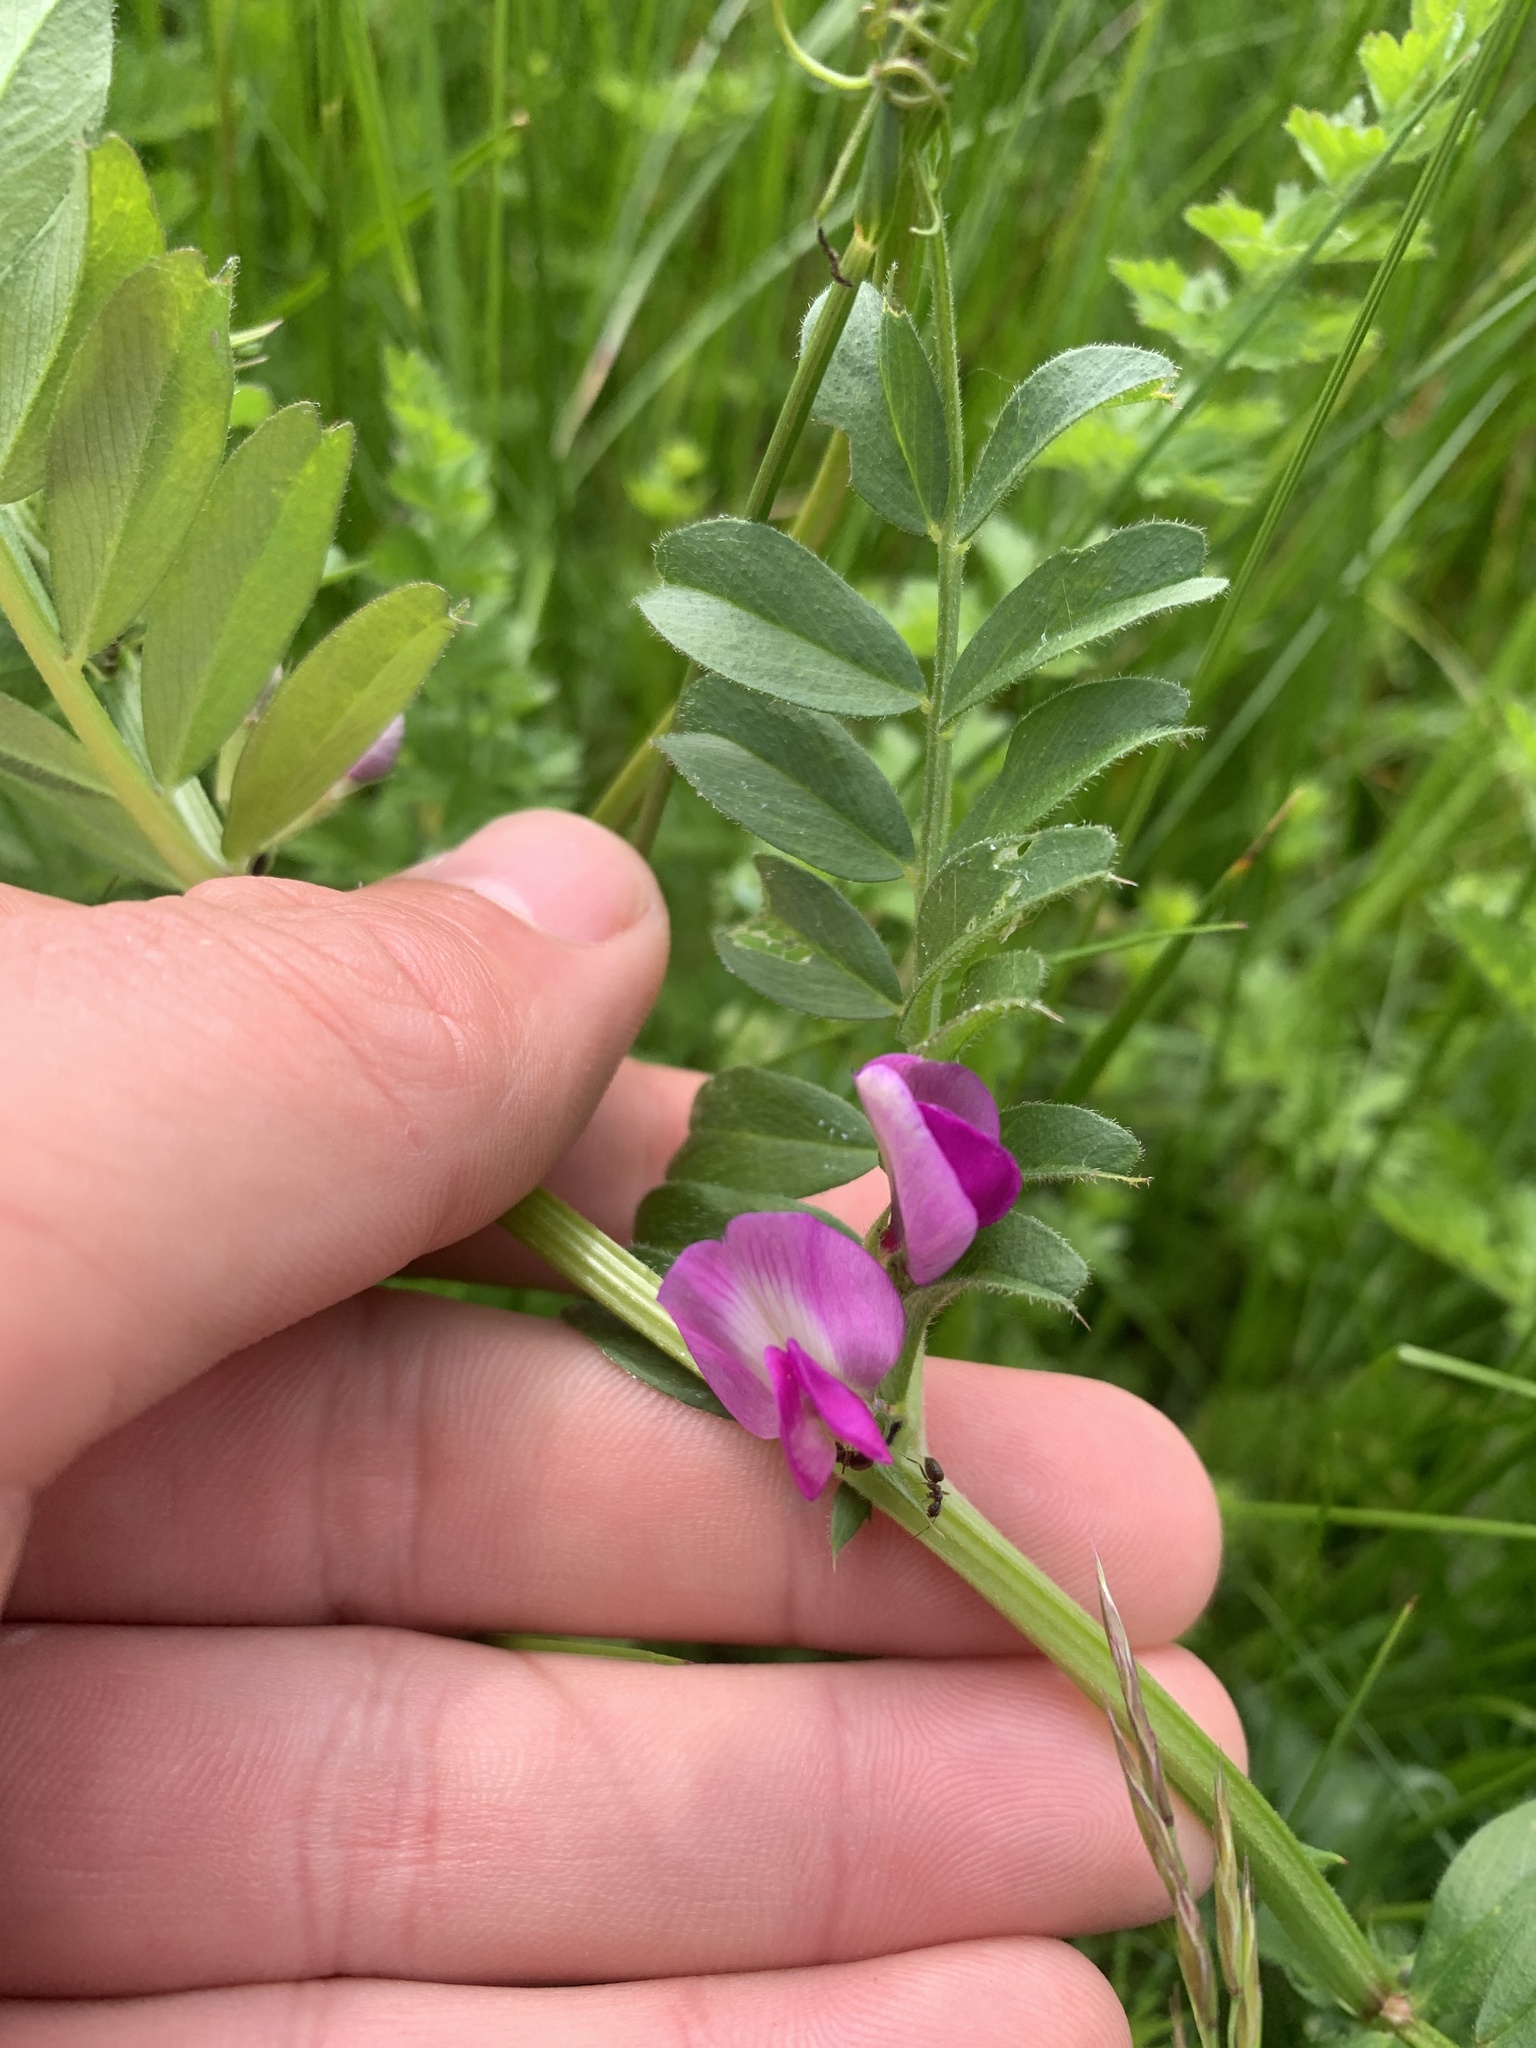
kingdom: Plantae
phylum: Tracheophyta
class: Magnoliopsida
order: Fabales
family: Fabaceae
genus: Vicia
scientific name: Vicia sativa
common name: Garden vetch
